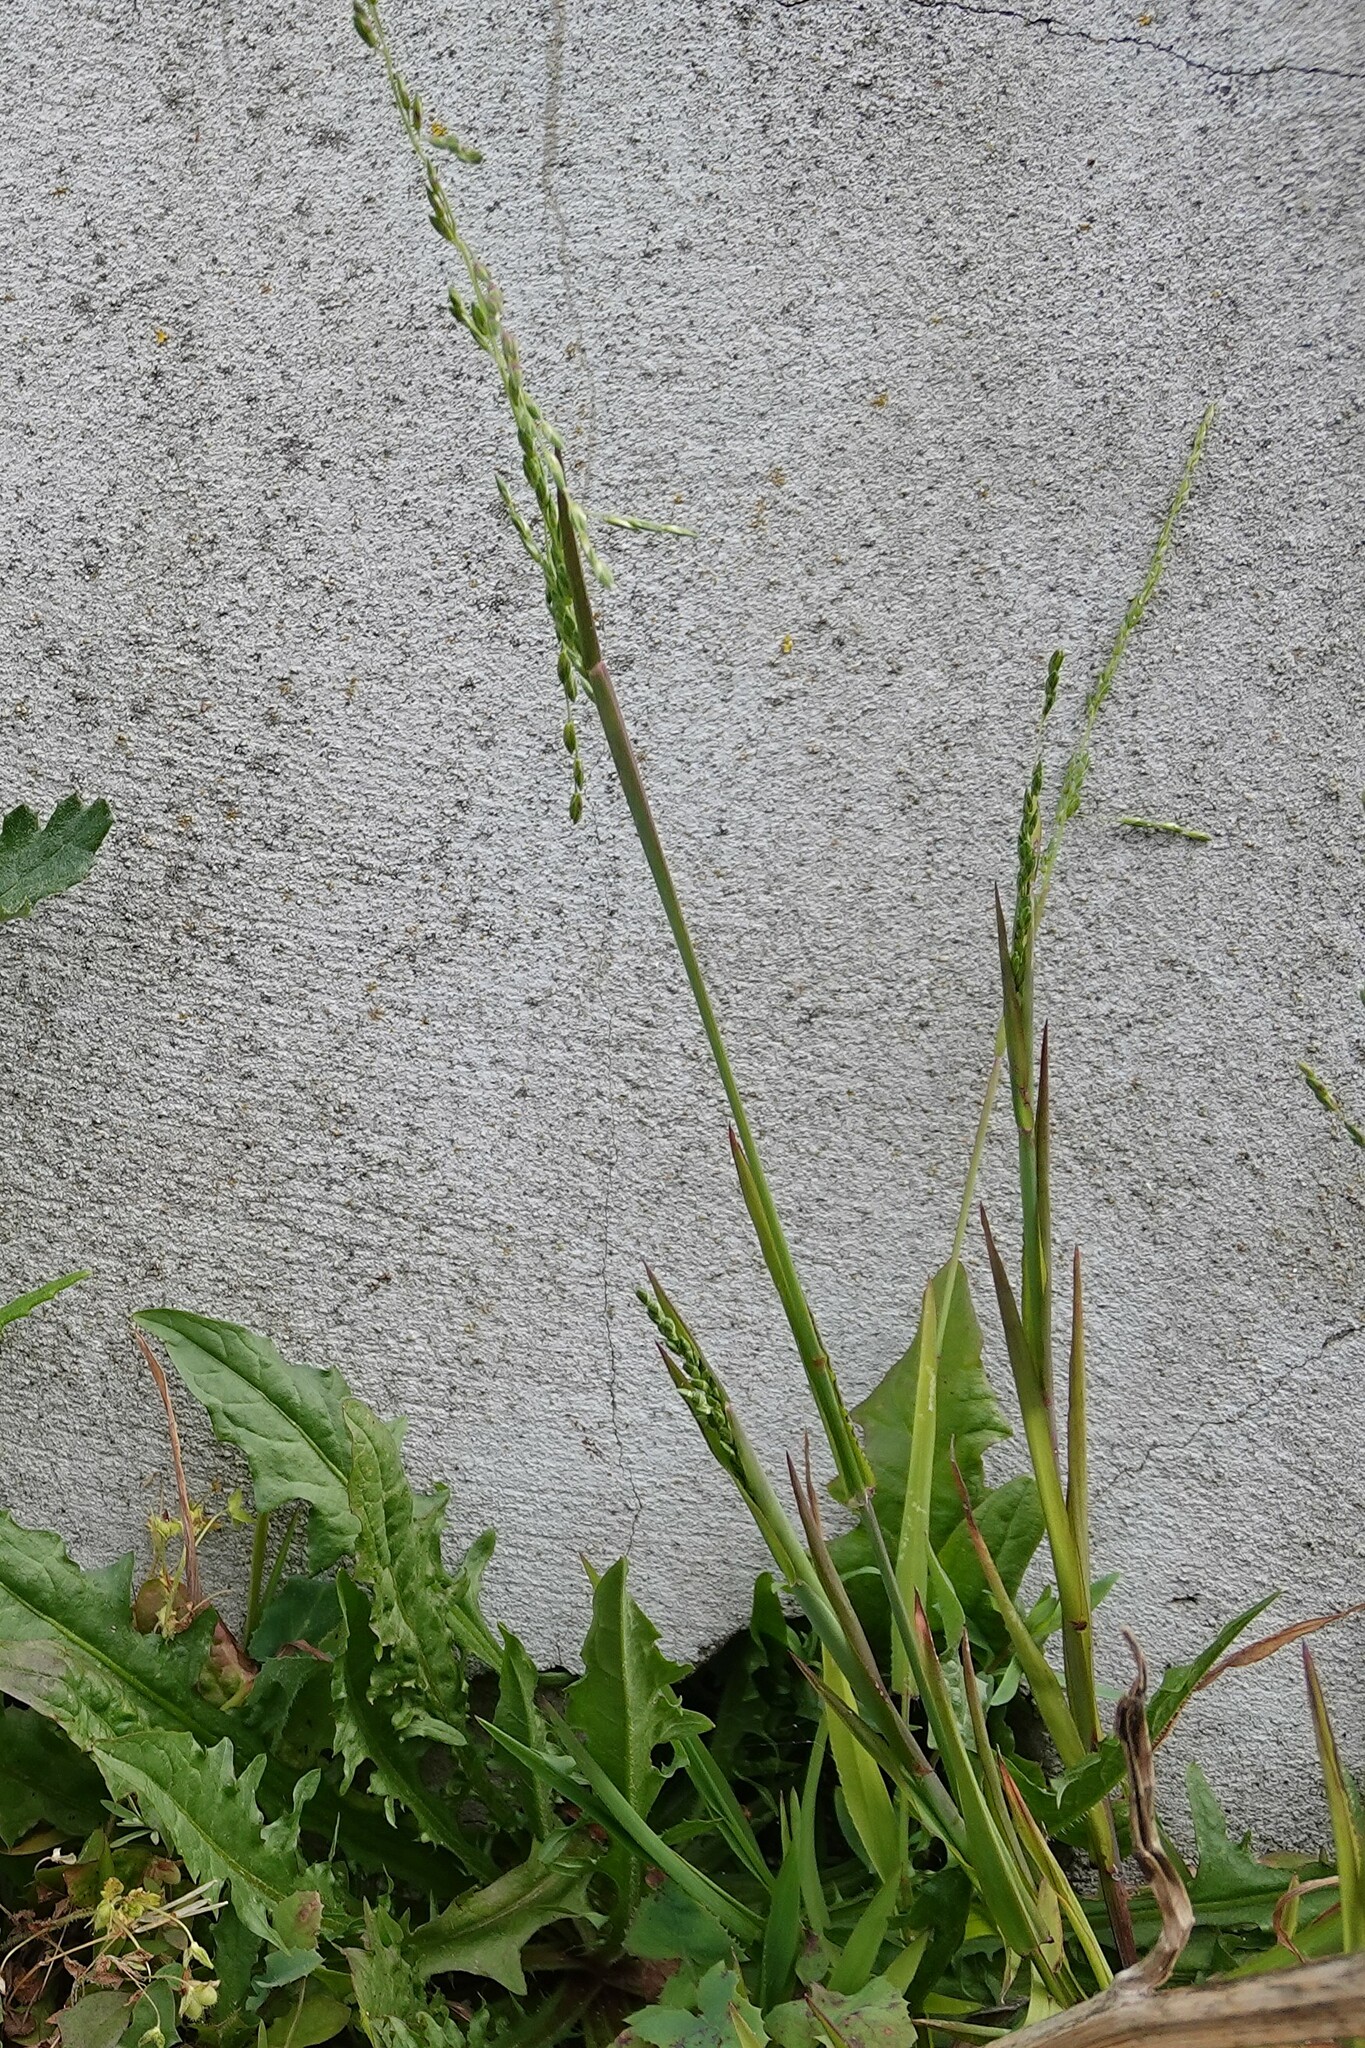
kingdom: Plantae
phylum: Tracheophyta
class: Liliopsida
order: Poales
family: Poaceae
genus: Ehrharta
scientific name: Ehrharta erecta
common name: Panic veldtgrass
